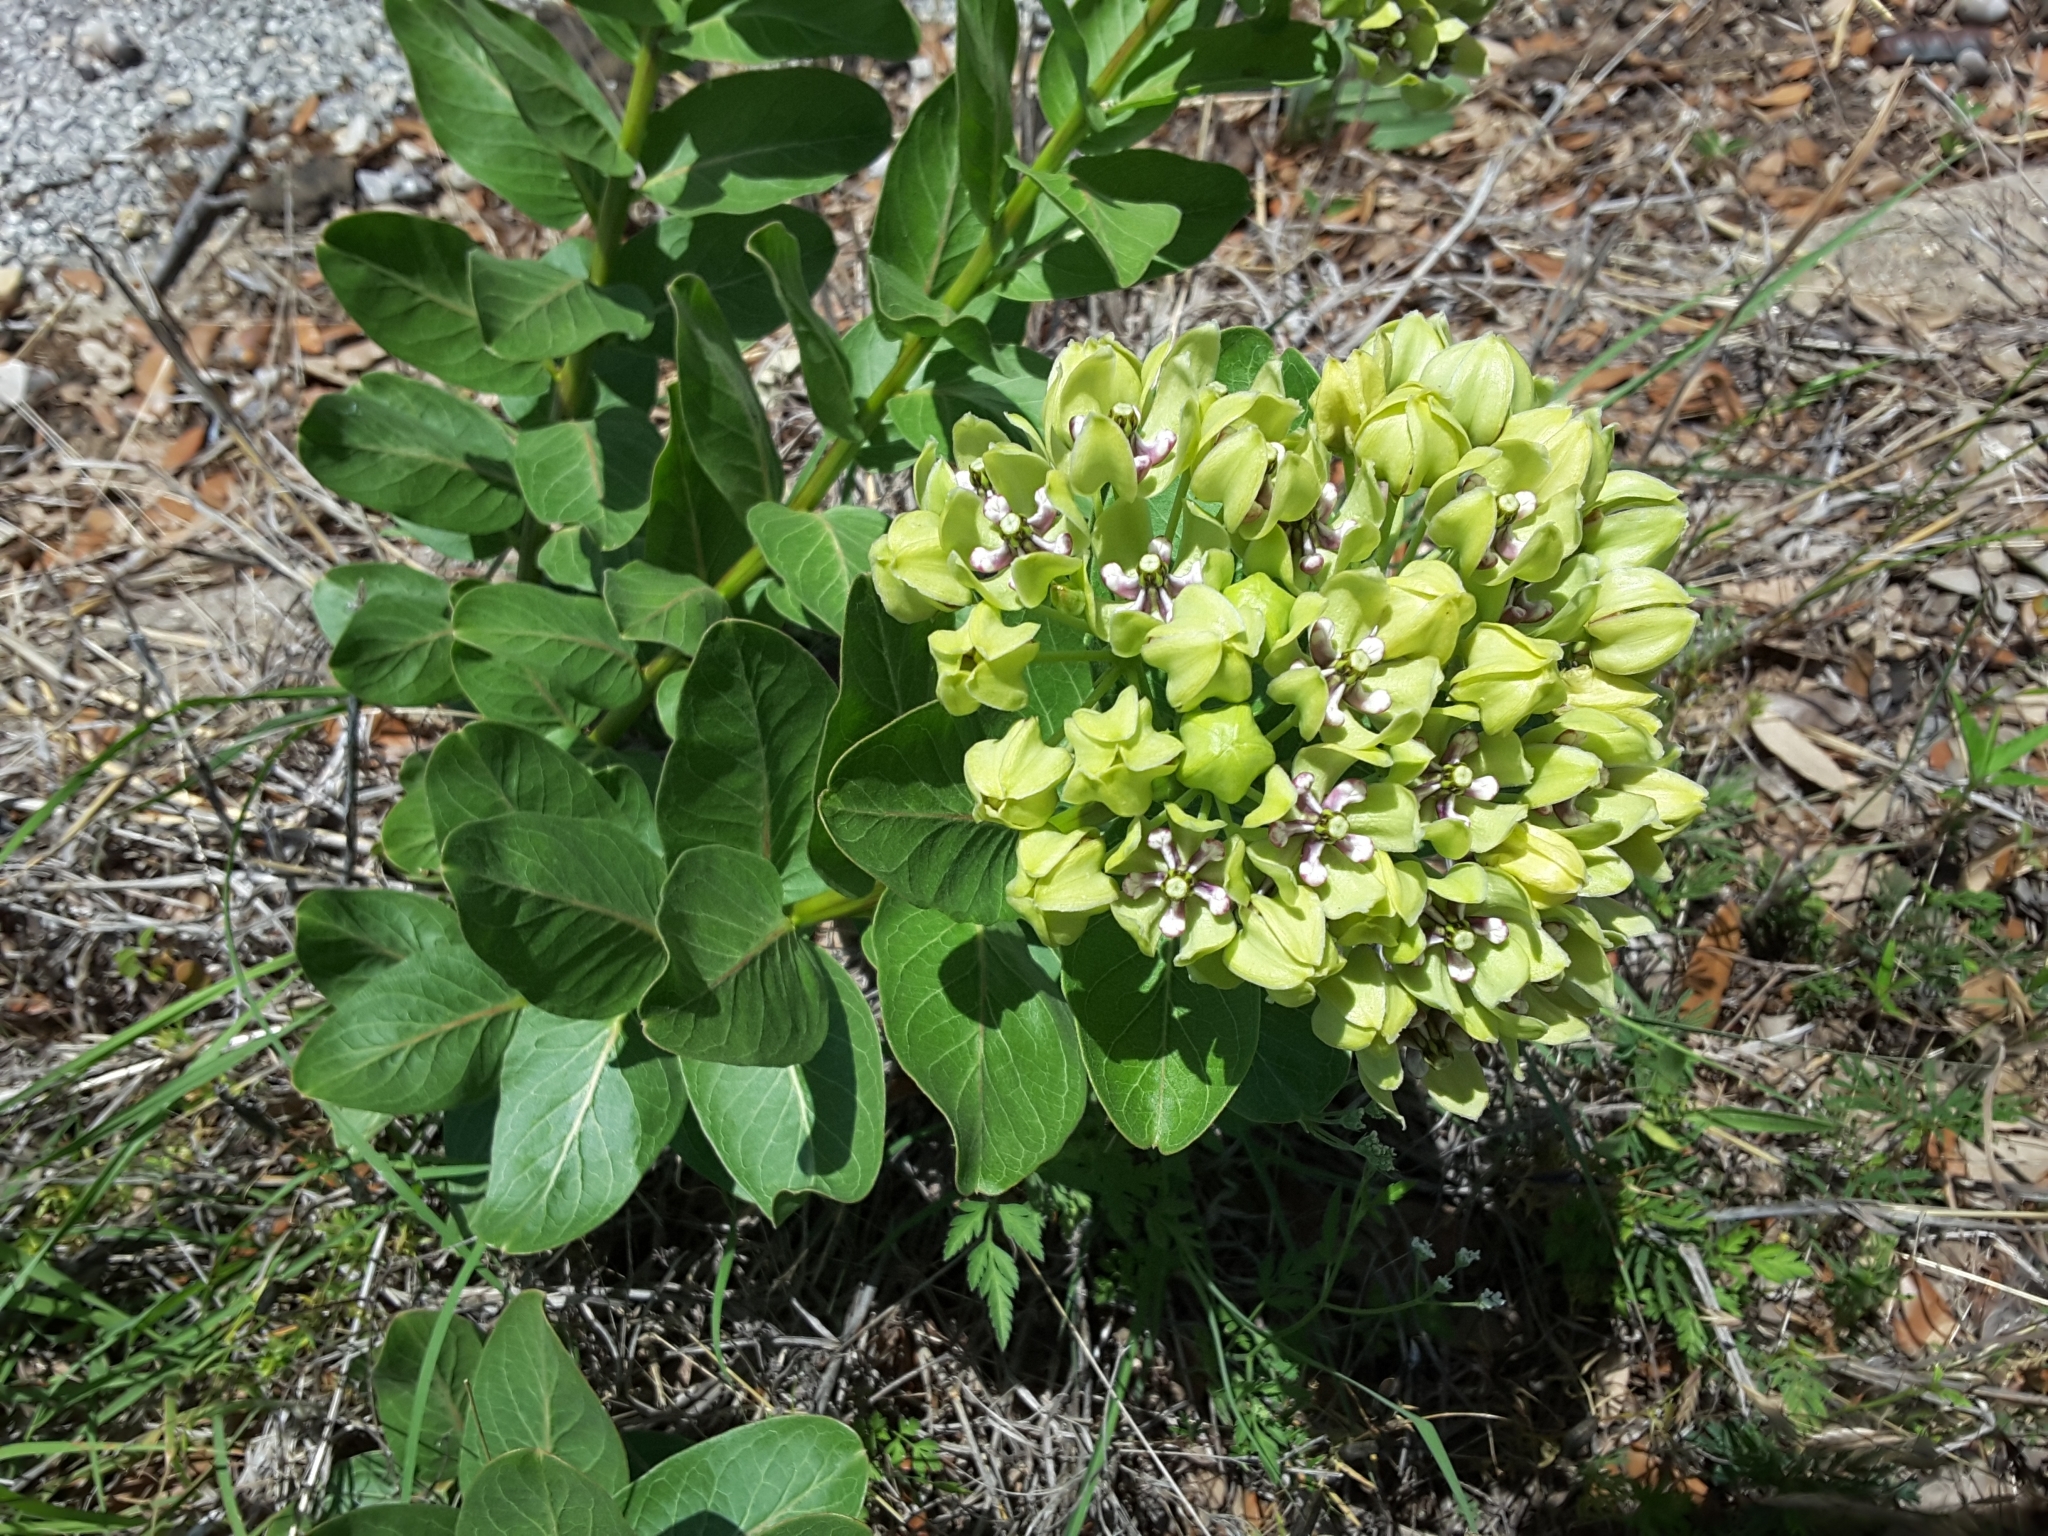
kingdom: Plantae
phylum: Tracheophyta
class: Magnoliopsida
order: Gentianales
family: Apocynaceae
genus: Asclepias
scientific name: Asclepias viridis
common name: Antelope-horns
